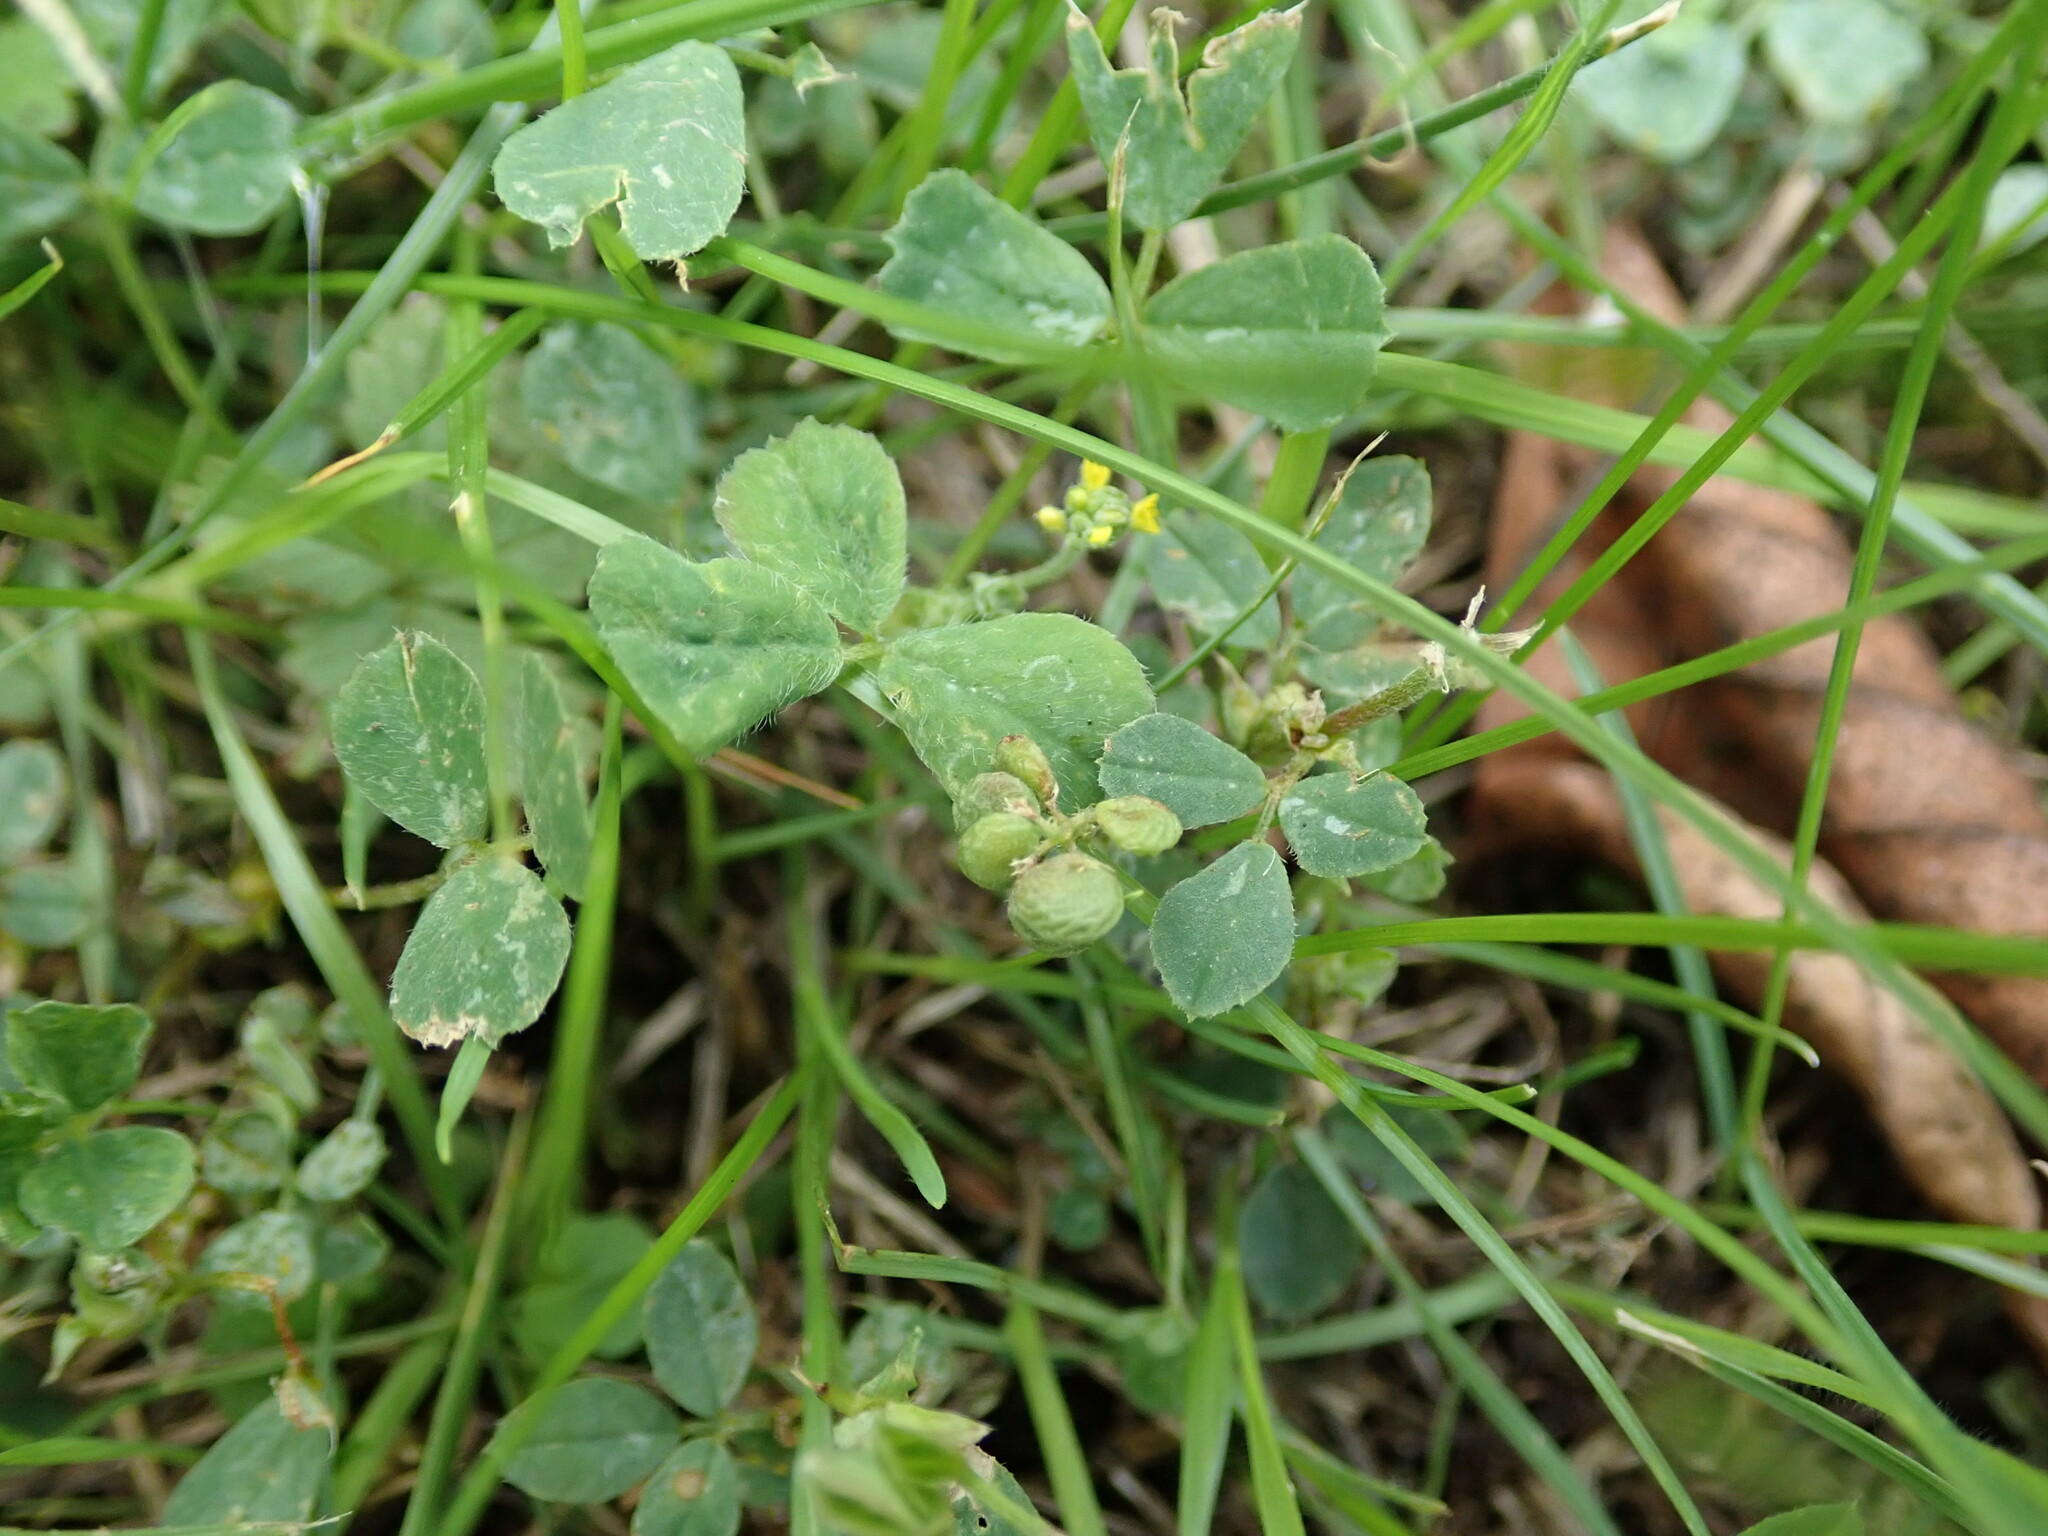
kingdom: Plantae
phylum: Tracheophyta
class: Magnoliopsida
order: Fabales
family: Fabaceae
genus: Medicago
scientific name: Medicago lupulina
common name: Black medick
